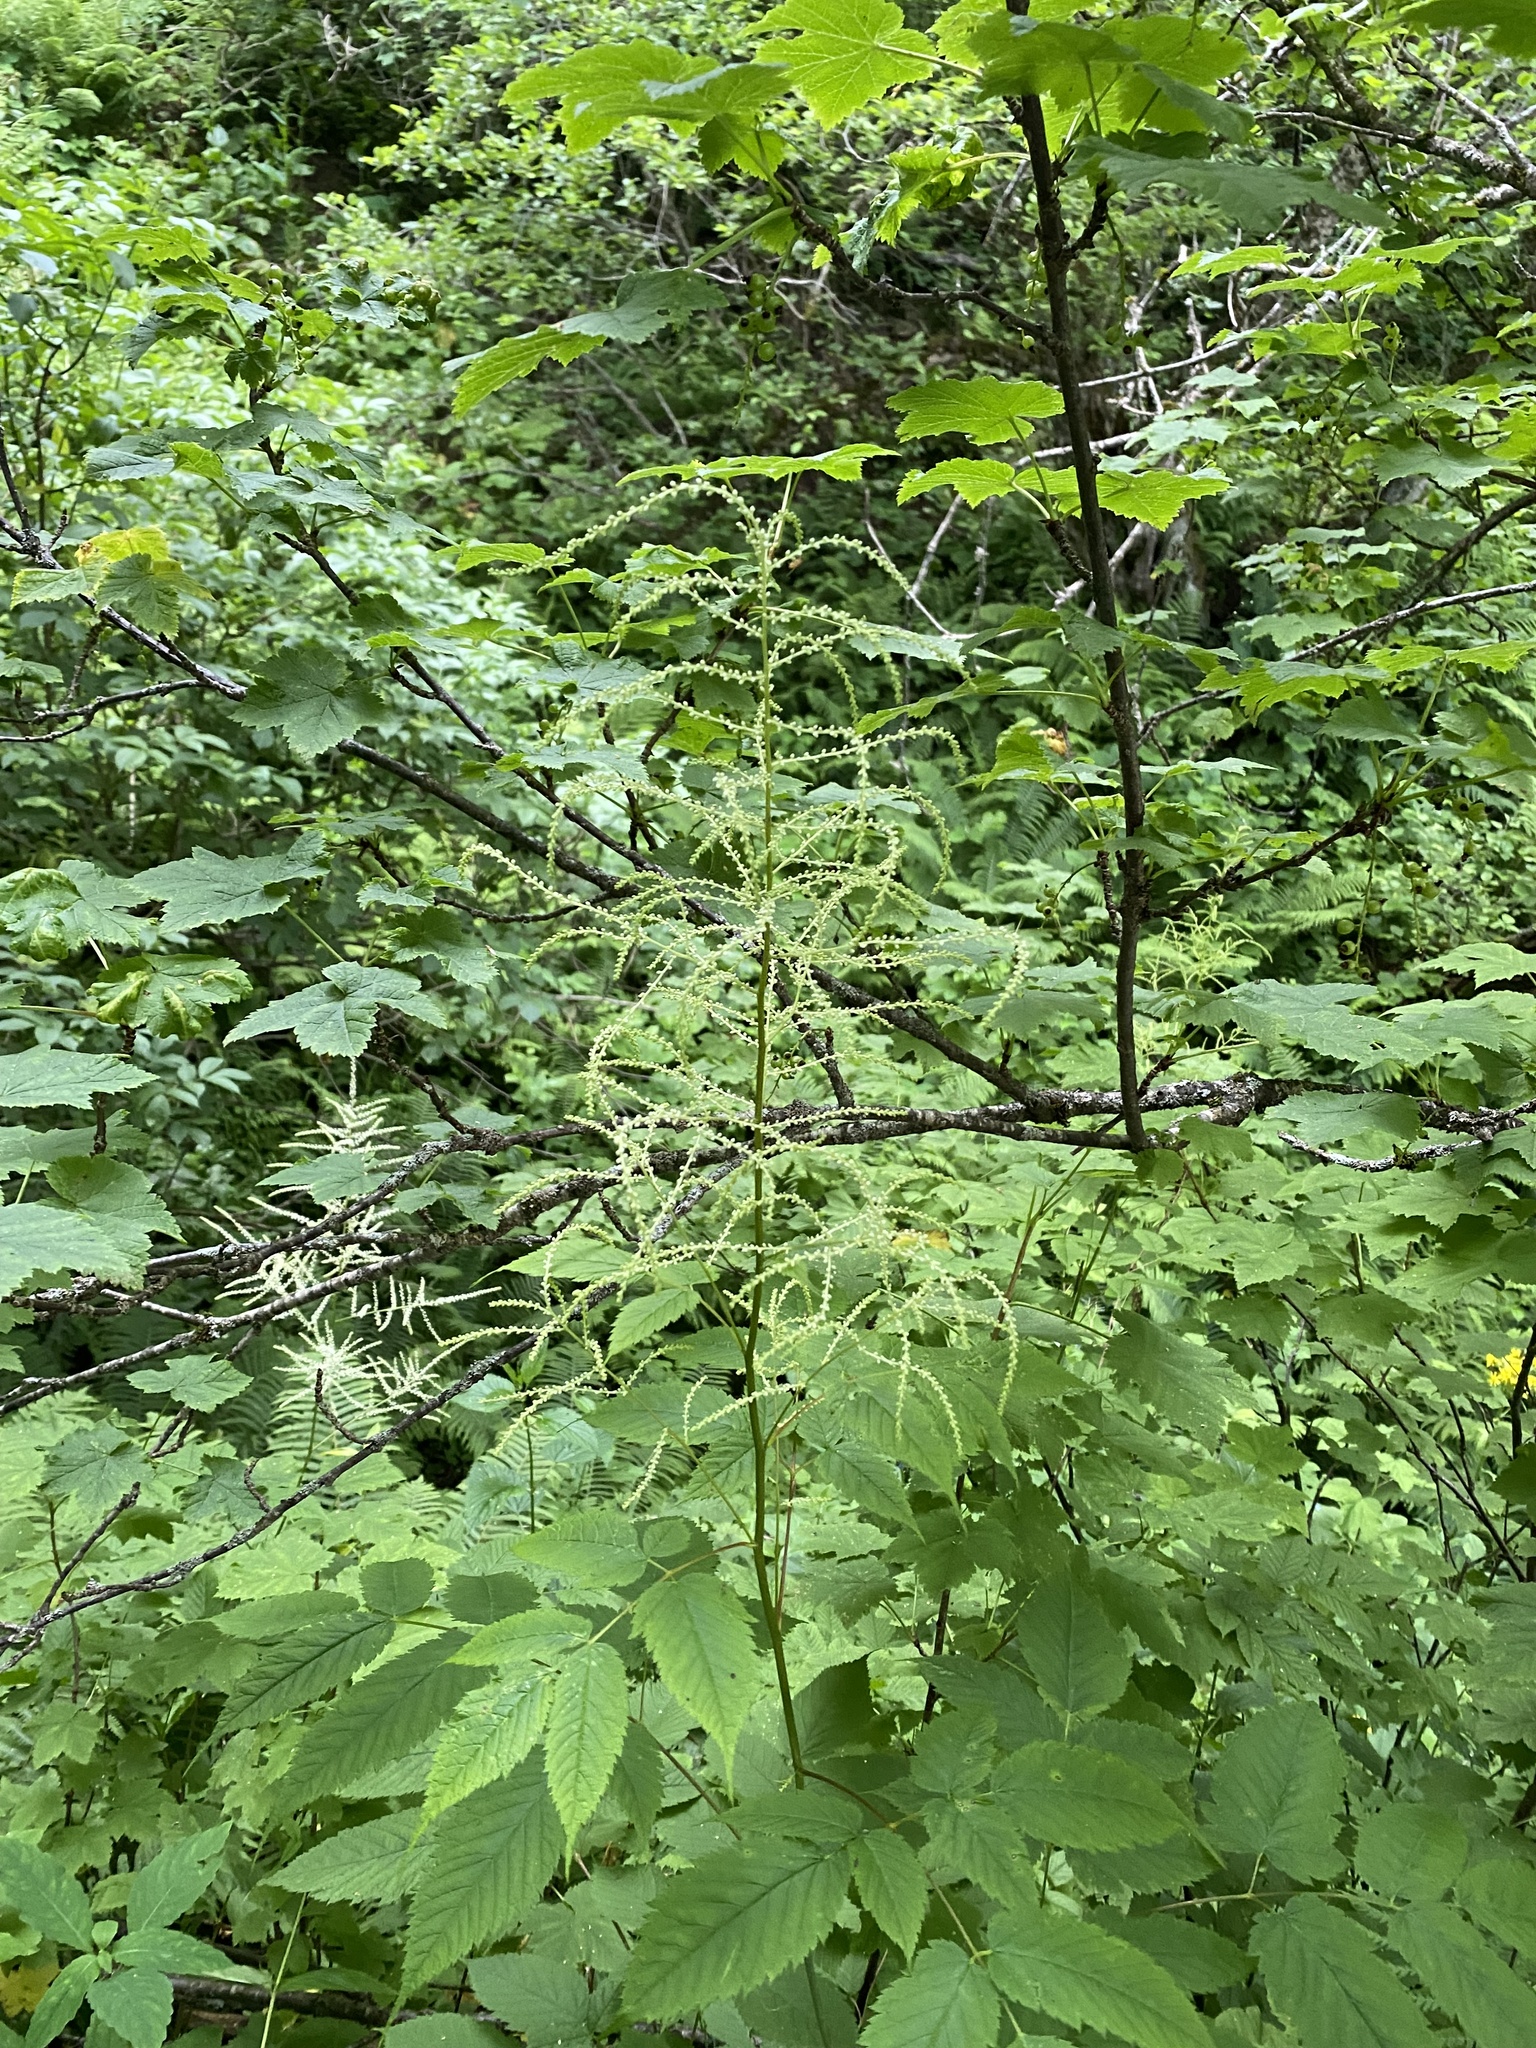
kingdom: Plantae
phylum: Tracheophyta
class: Magnoliopsida
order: Rosales
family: Rosaceae
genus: Aruncus
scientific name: Aruncus dioicus
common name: Buck's-beard
